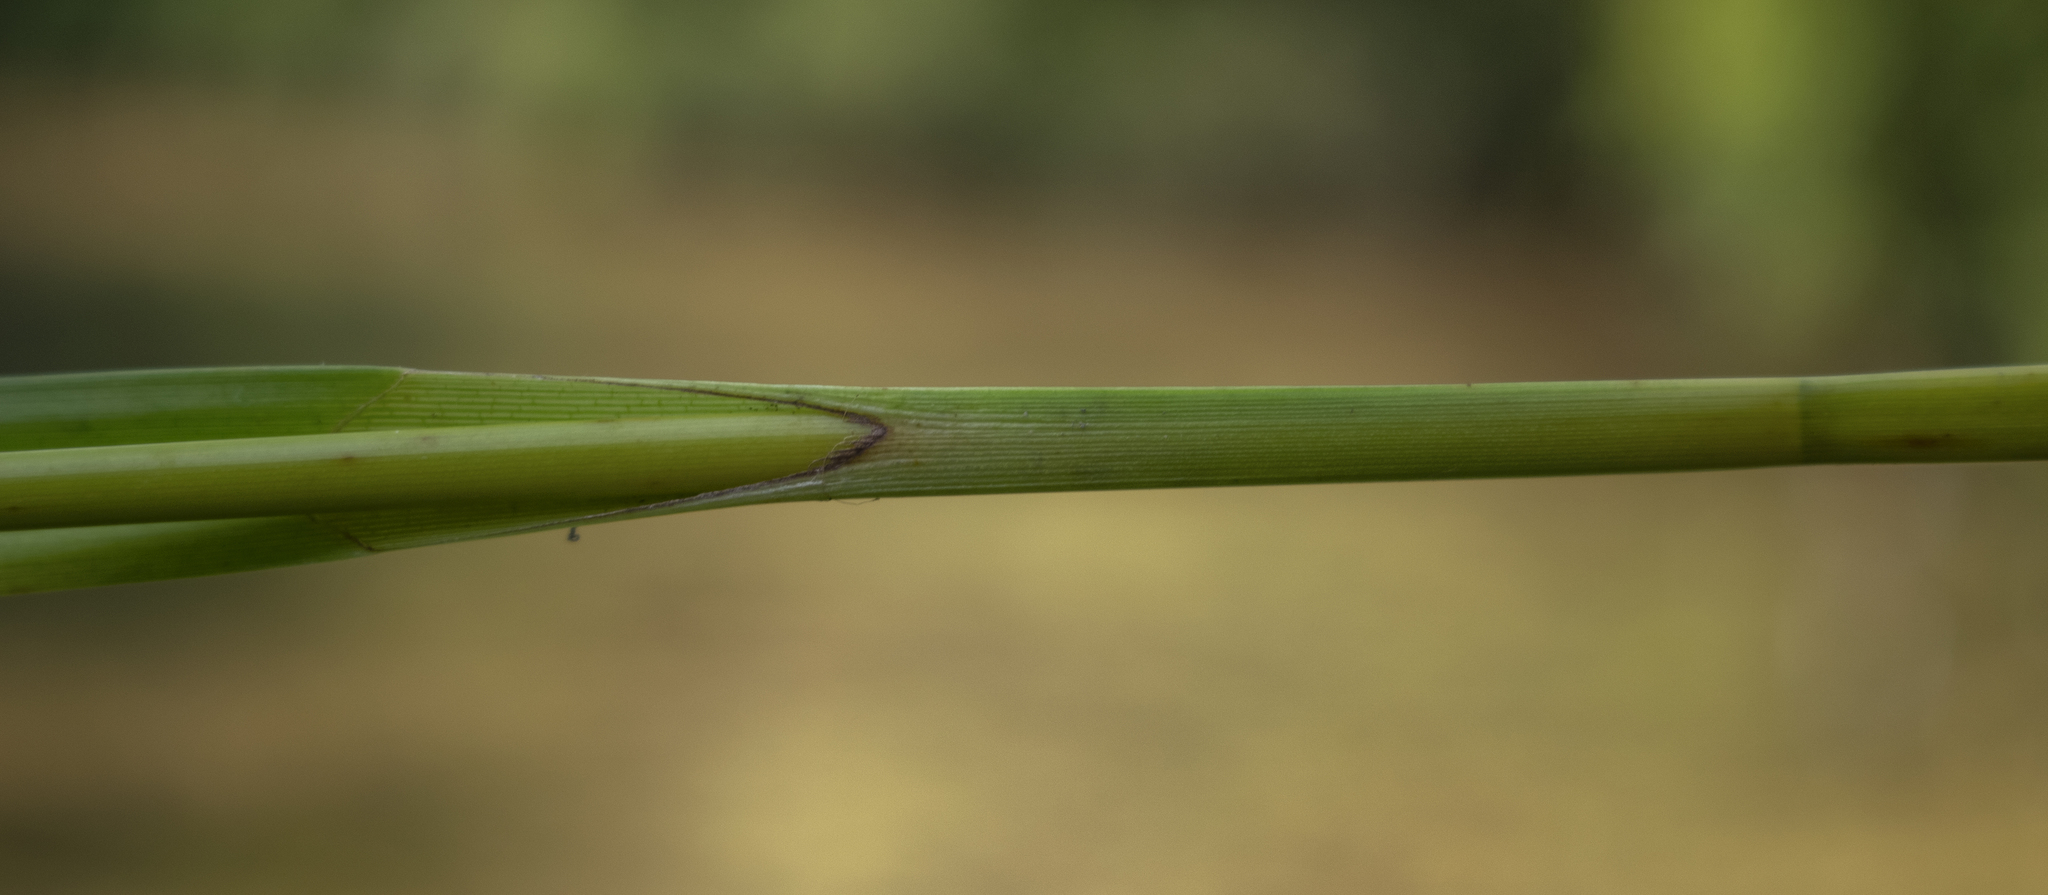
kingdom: Plantae
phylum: Tracheophyta
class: Liliopsida
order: Poales
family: Cyperaceae
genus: Scirpus
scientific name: Scirpus hattorianus
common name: Early dark-green bulrush
